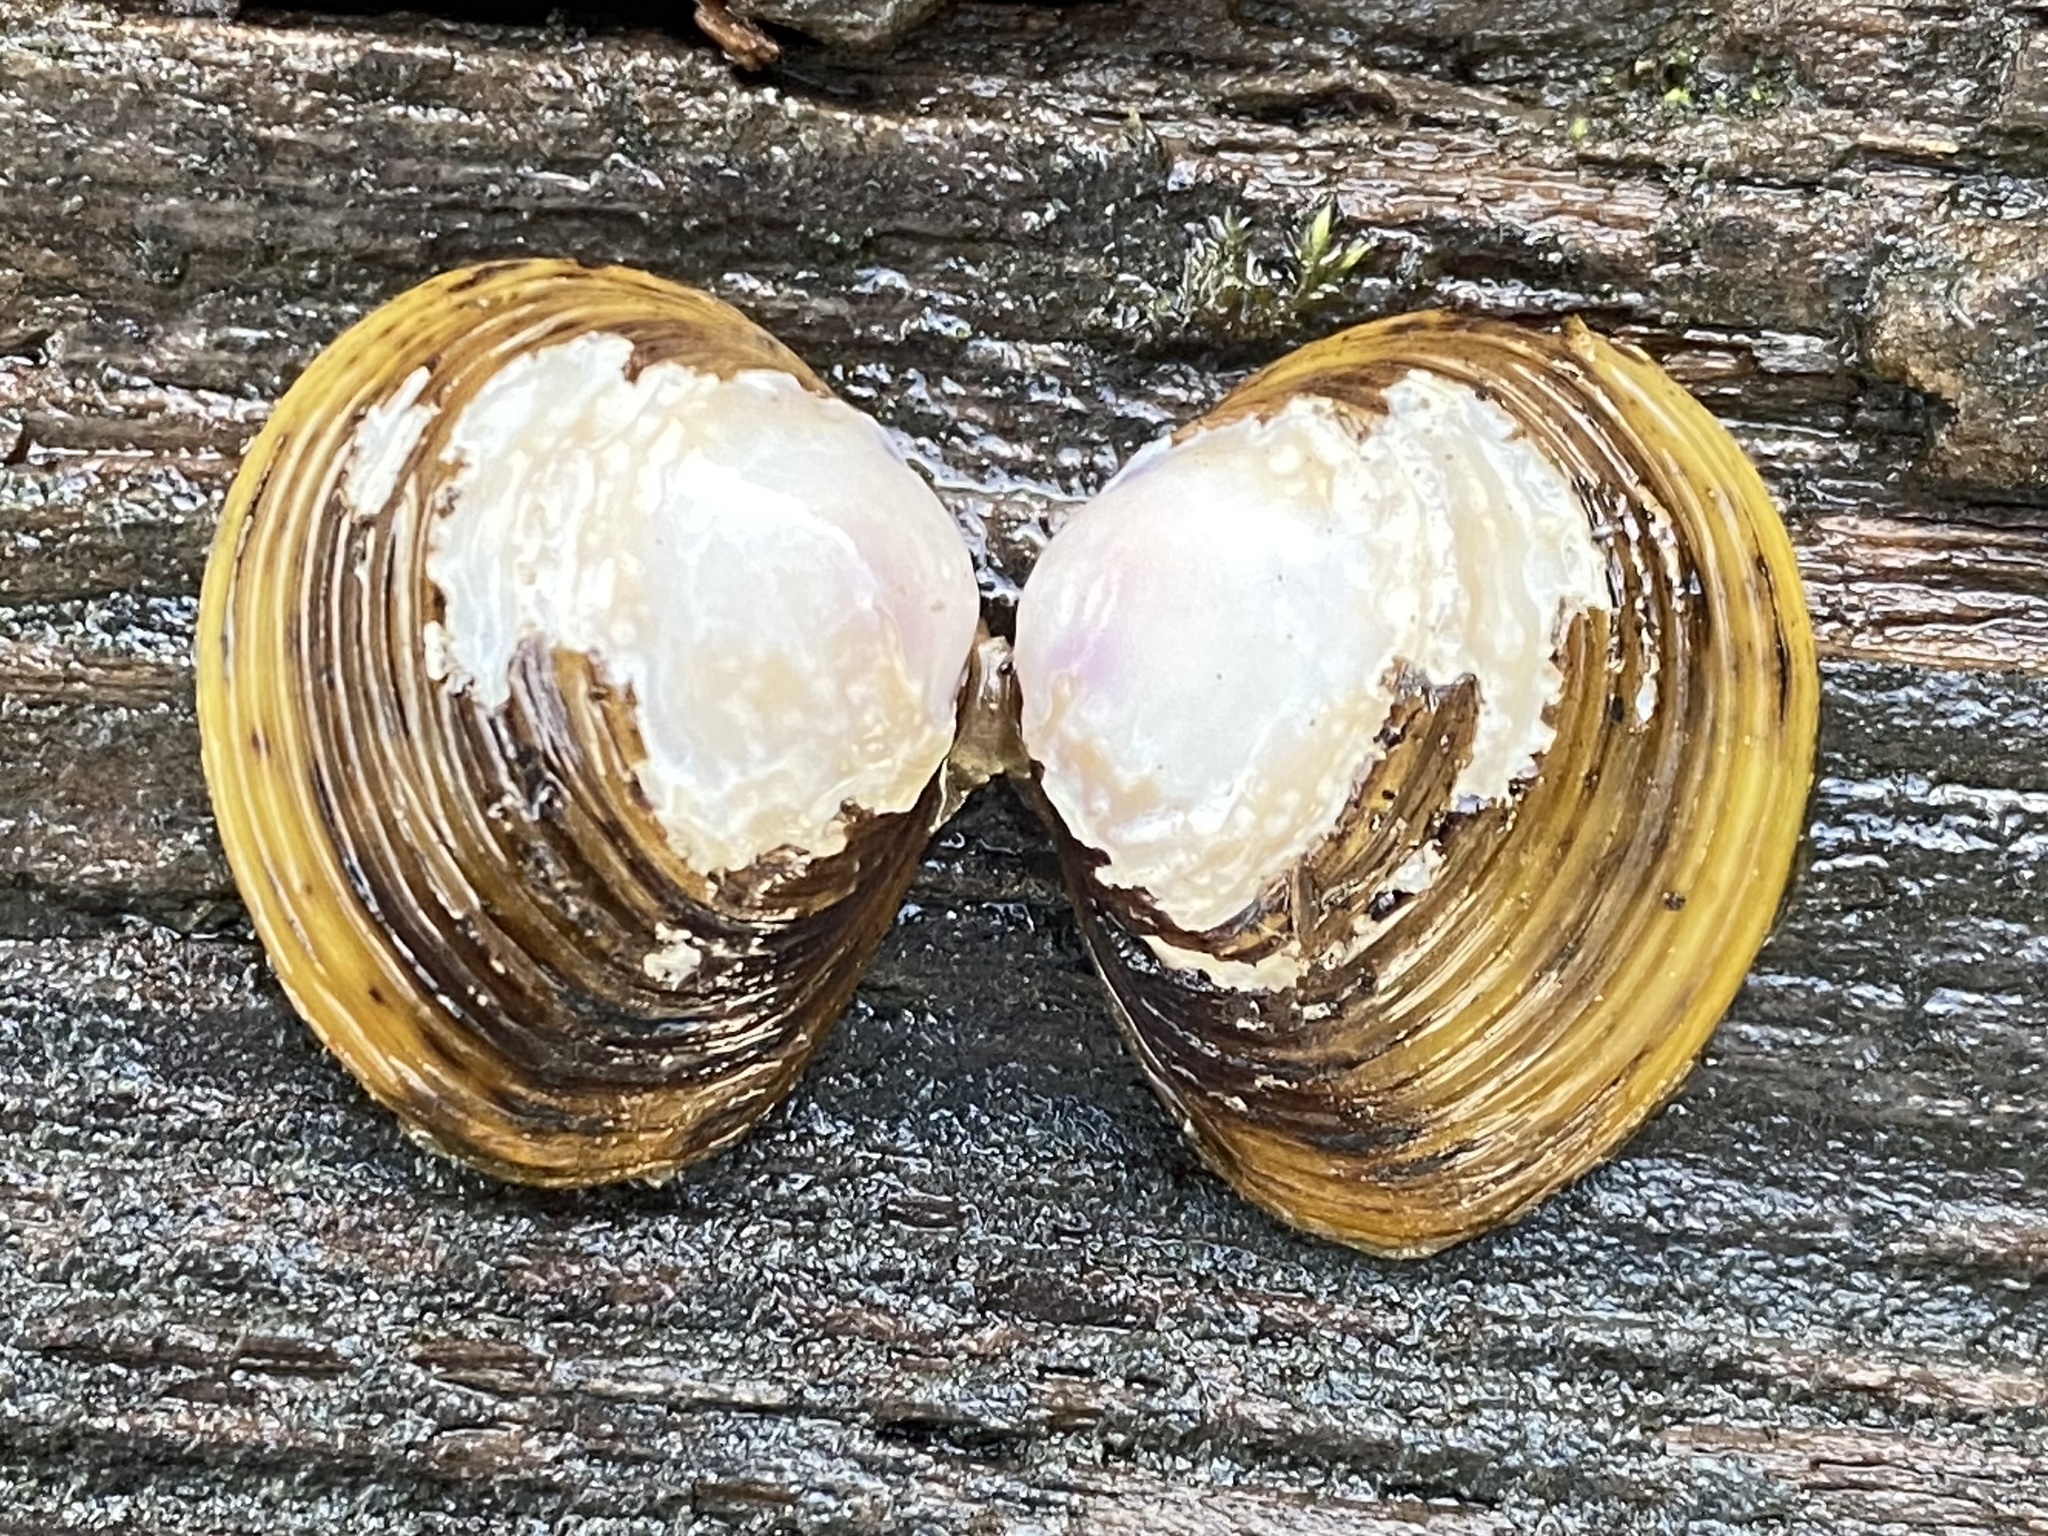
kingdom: Animalia
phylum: Mollusca
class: Bivalvia
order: Venerida
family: Cyrenidae
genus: Corbicula
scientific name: Corbicula fluminea
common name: Asian clam
